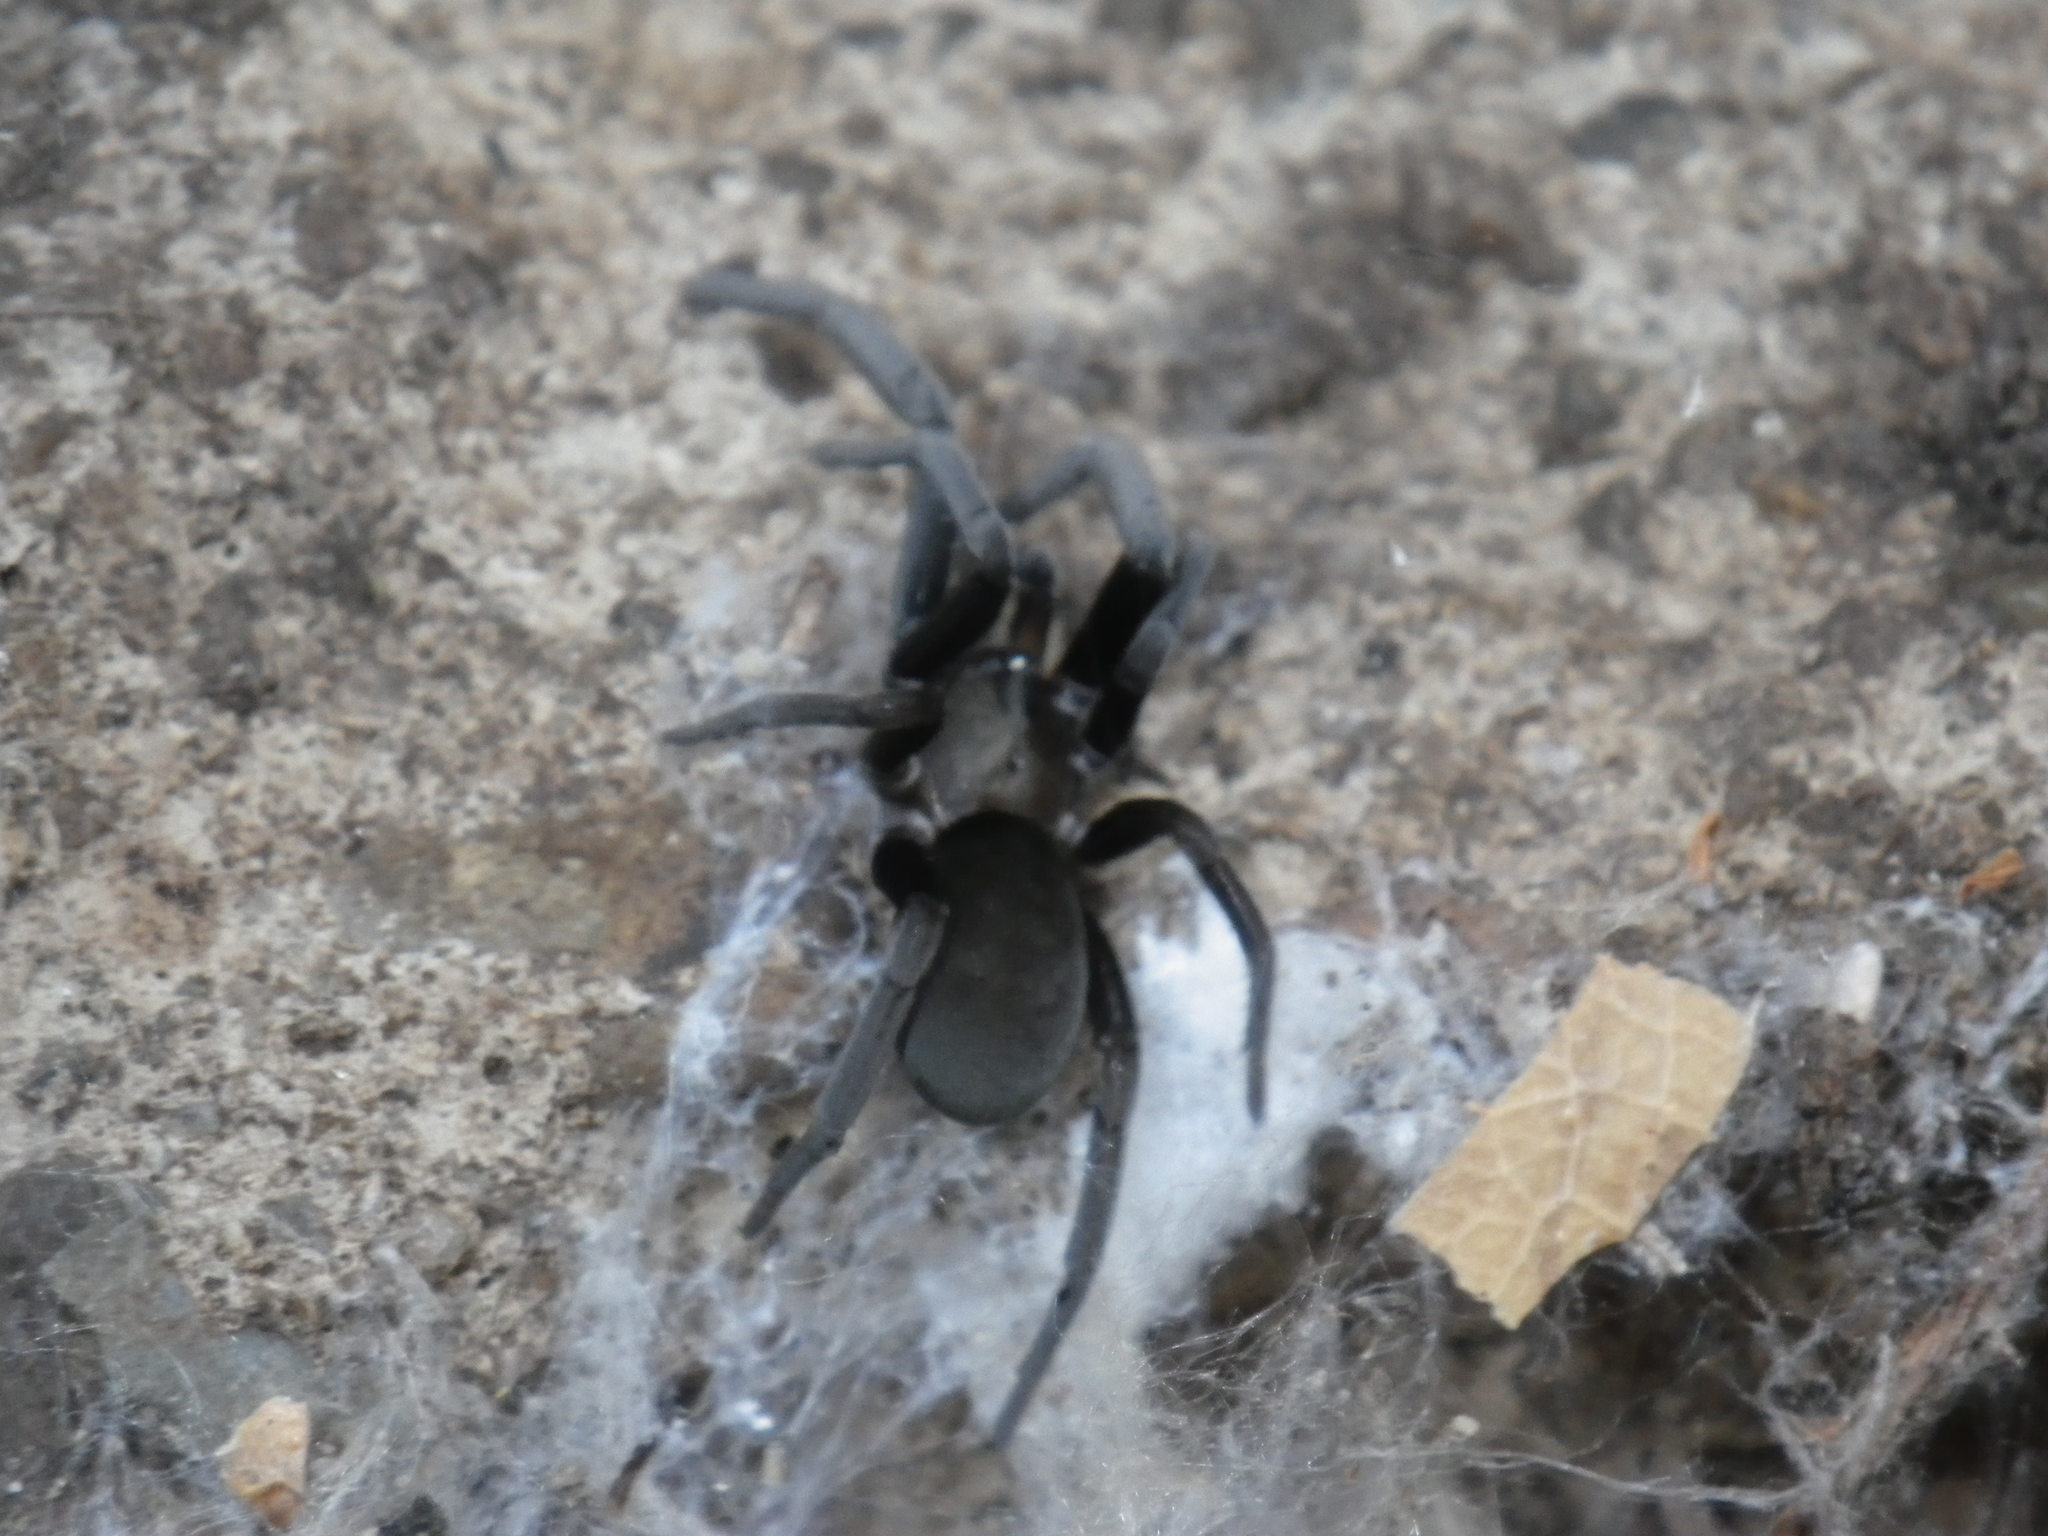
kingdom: Animalia
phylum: Arthropoda
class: Arachnida
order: Araneae
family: Filistatidae
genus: Kukulcania
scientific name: Kukulcania geophila
